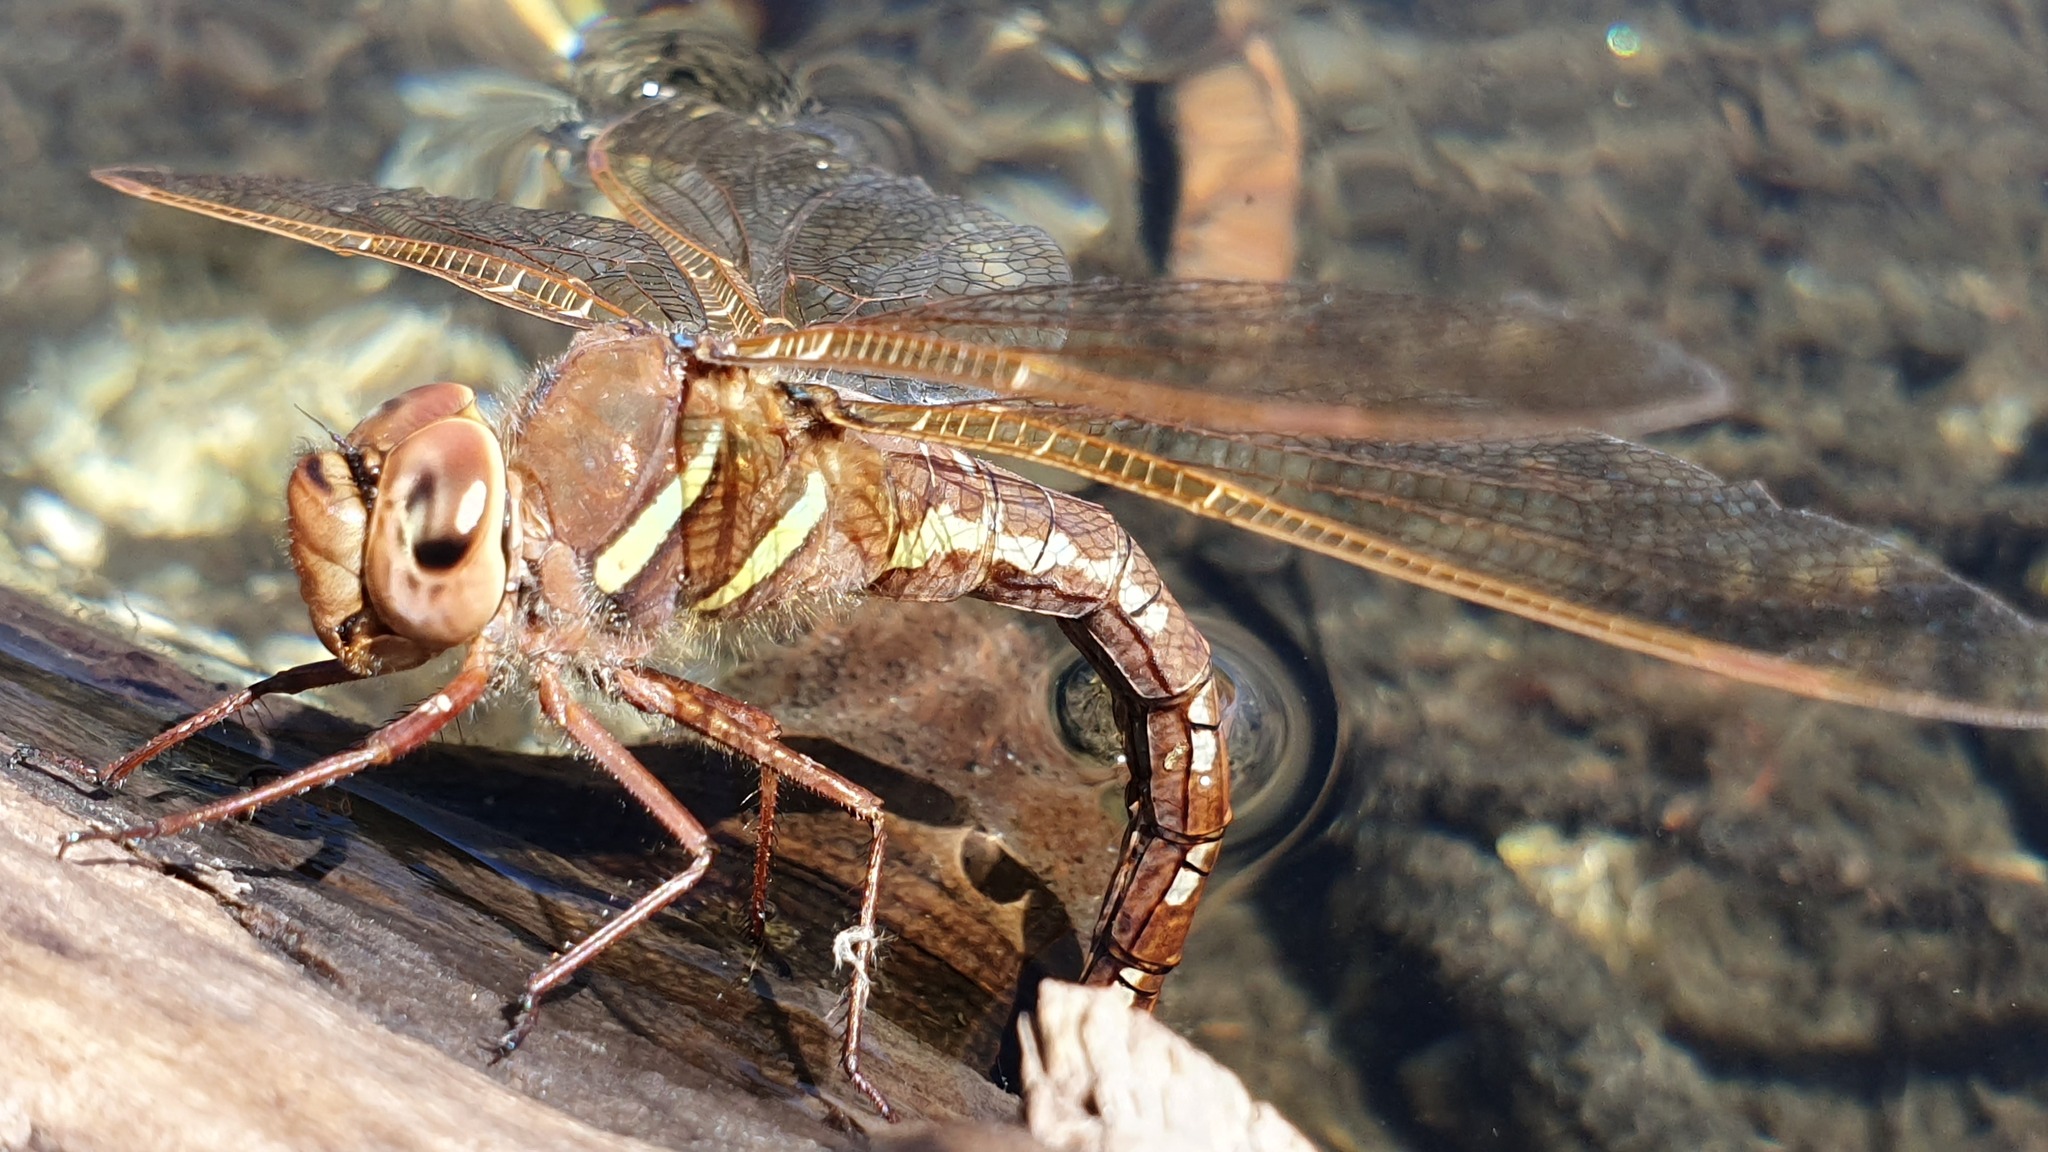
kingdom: Animalia
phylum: Arthropoda
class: Insecta
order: Odonata
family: Aeshnidae
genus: Aeshna
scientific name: Aeshna grandis
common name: Brown hawker
